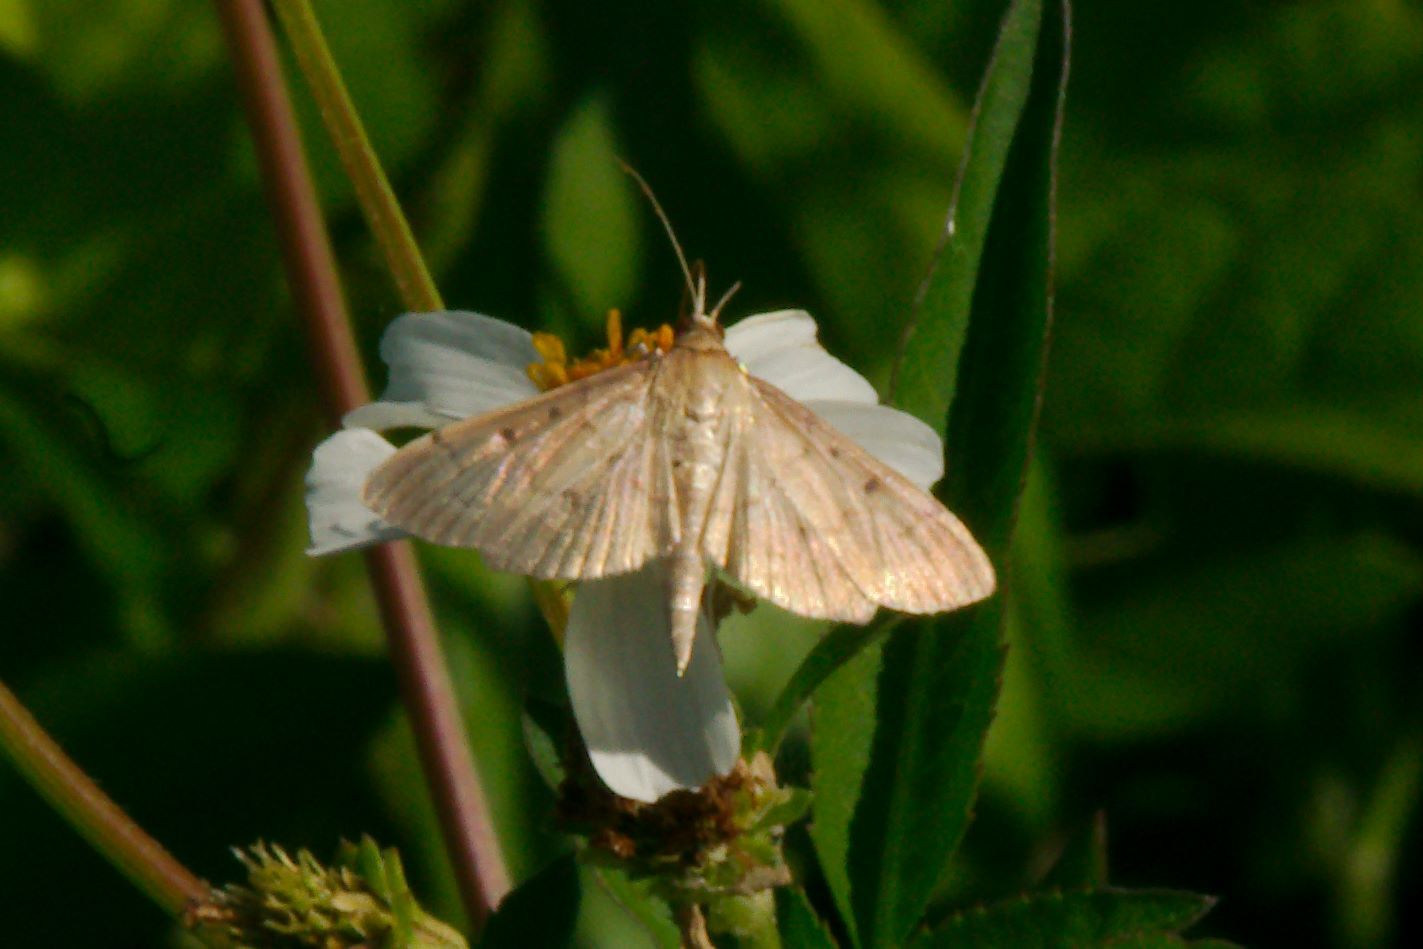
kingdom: Animalia
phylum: Arthropoda
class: Insecta
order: Lepidoptera
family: Crambidae
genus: Herpetogramma
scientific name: Herpetogramma bipunctalis
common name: Southern beet webworm
